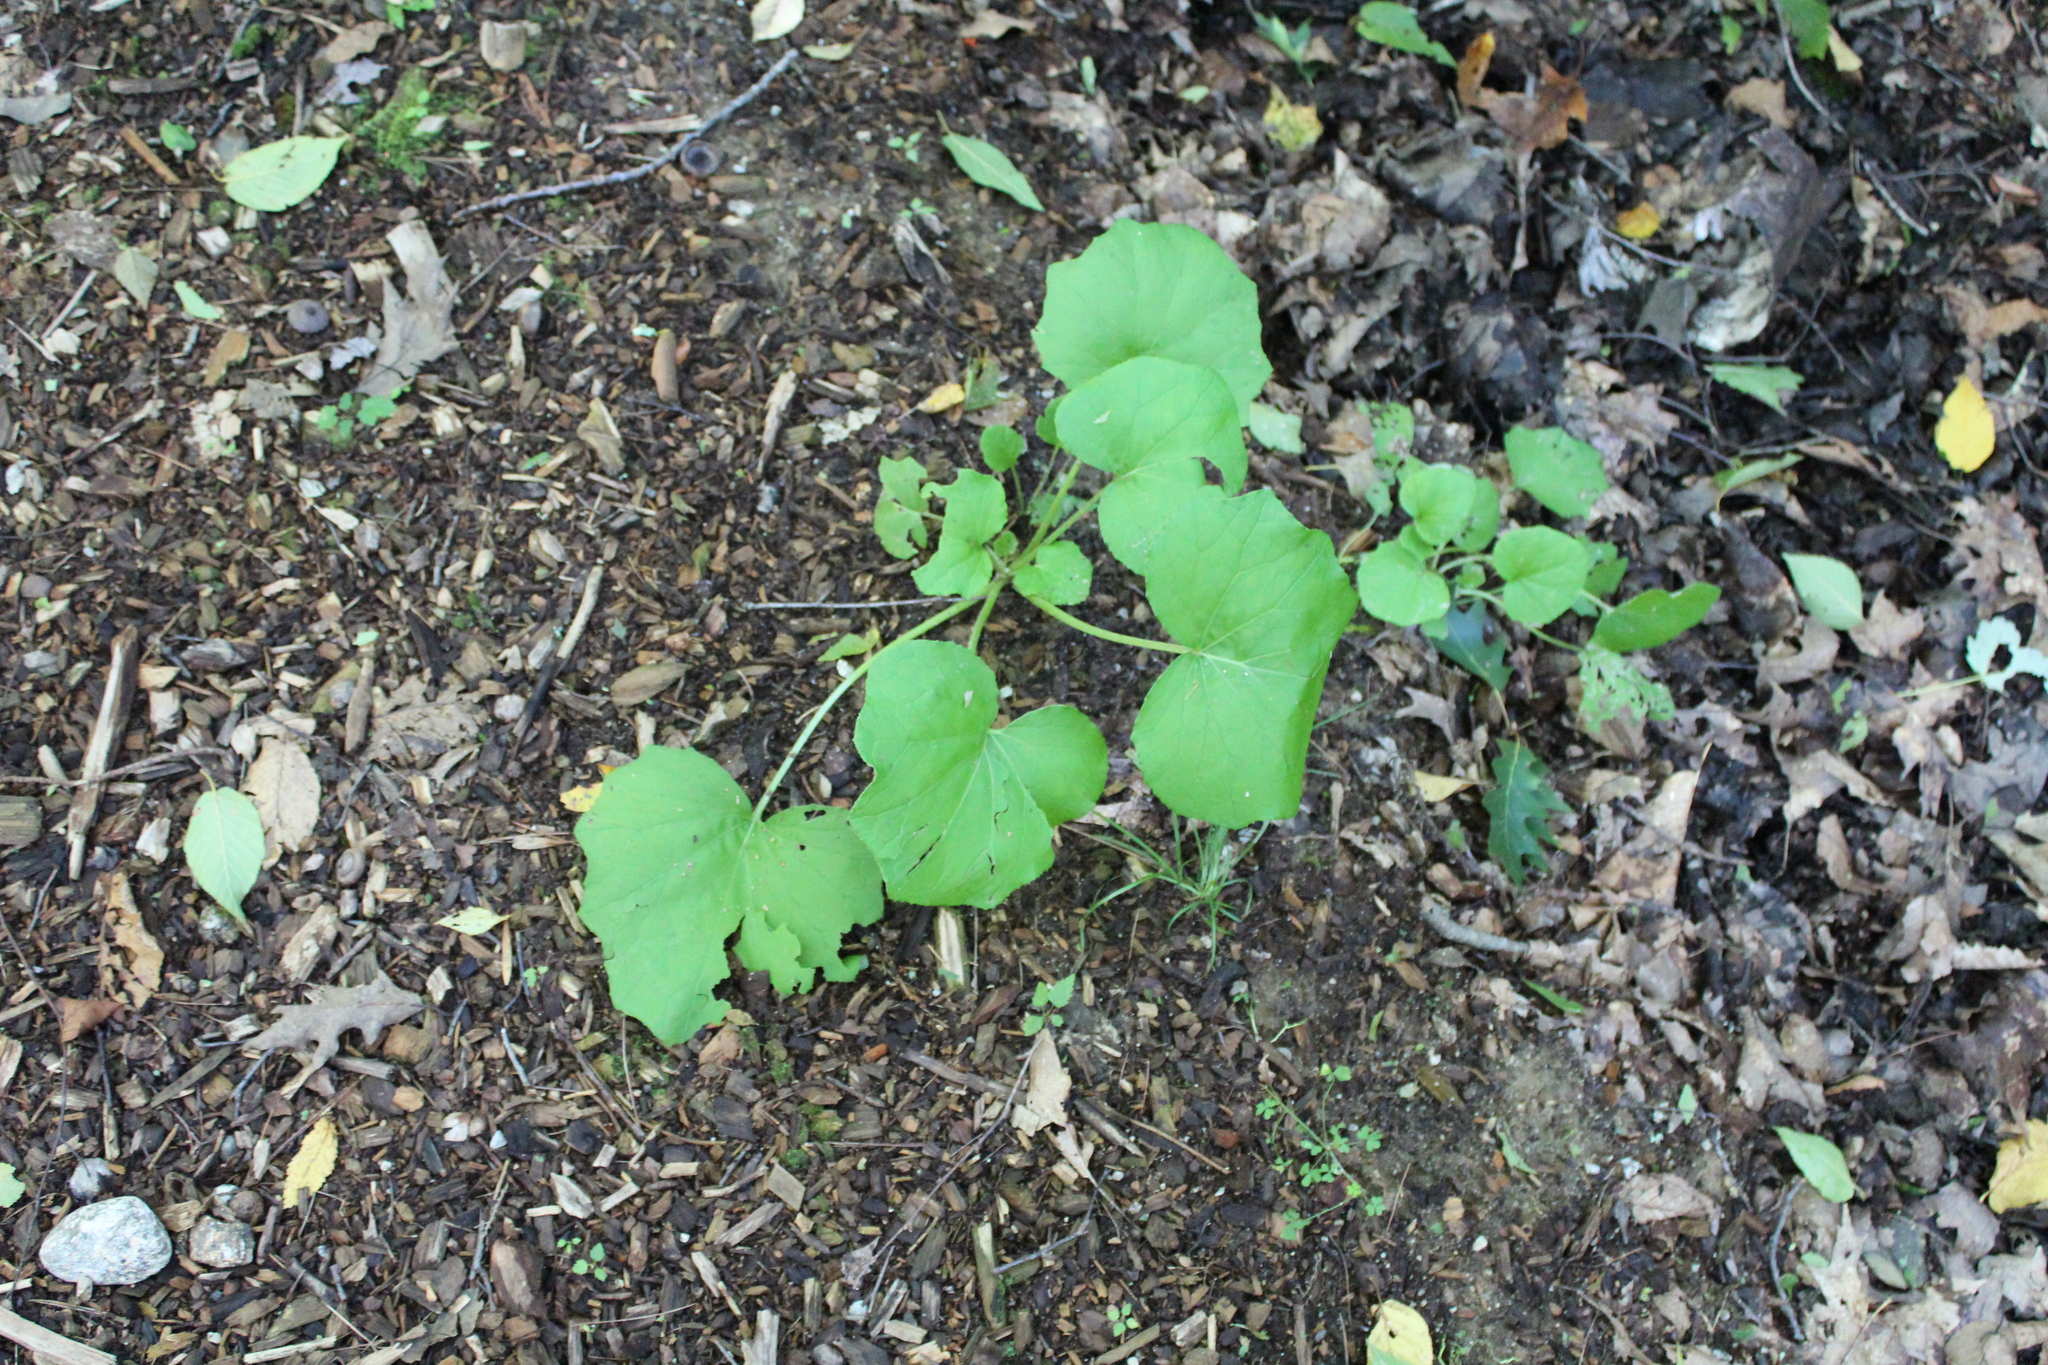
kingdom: Plantae
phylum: Tracheophyta
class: Magnoliopsida
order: Asterales
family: Asteraceae
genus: Tussilago
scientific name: Tussilago farfara
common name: Coltsfoot
